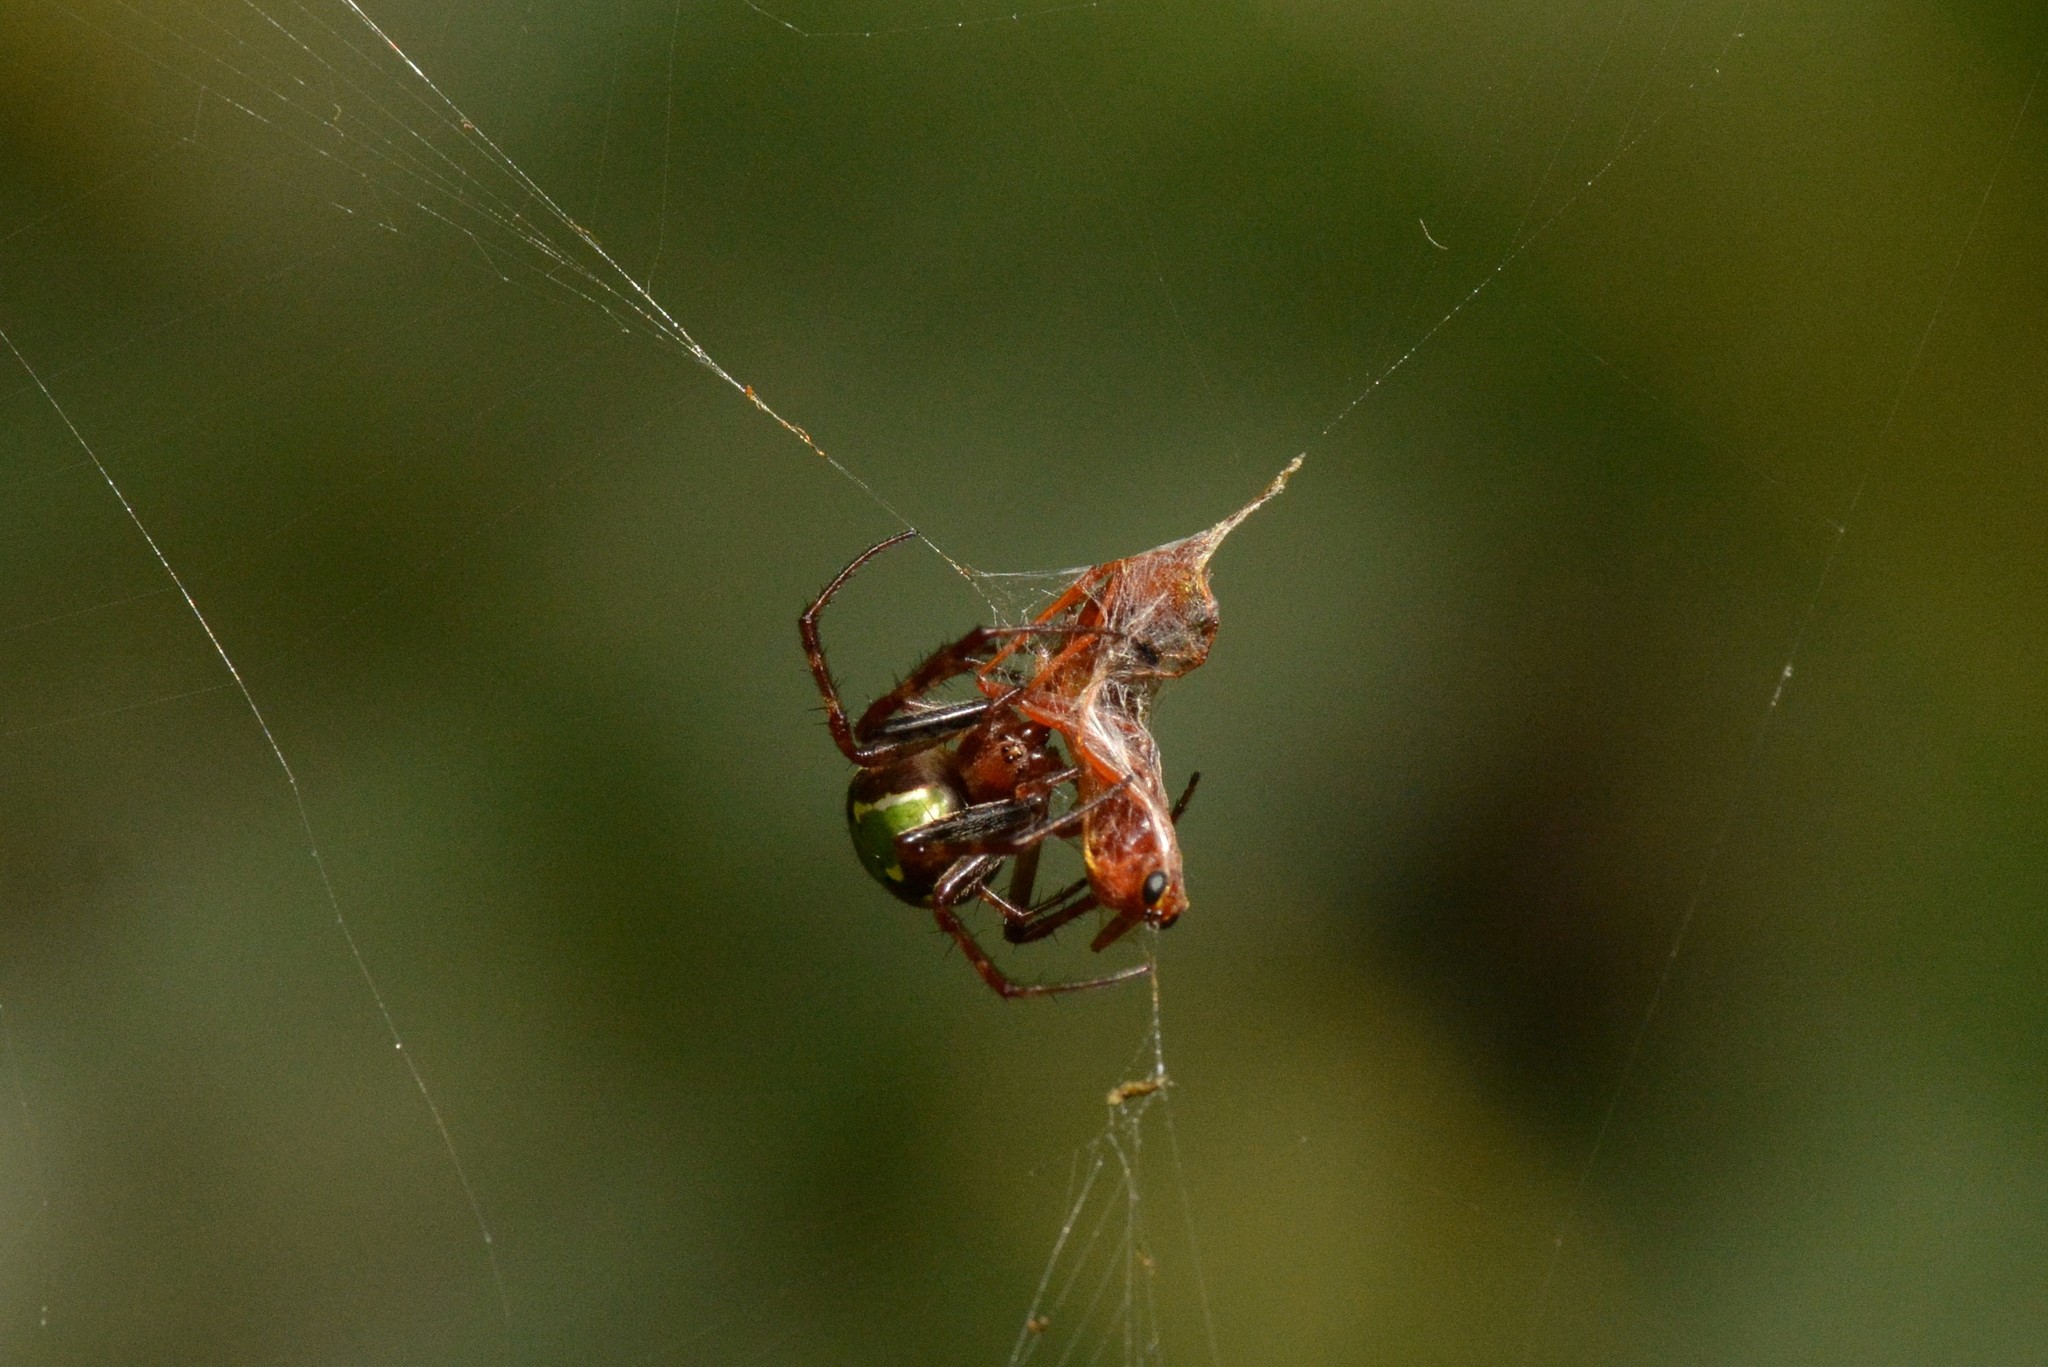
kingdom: Animalia
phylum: Arthropoda
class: Arachnida
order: Araneae
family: Araneidae
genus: Novaranea
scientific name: Novaranea queribunda
